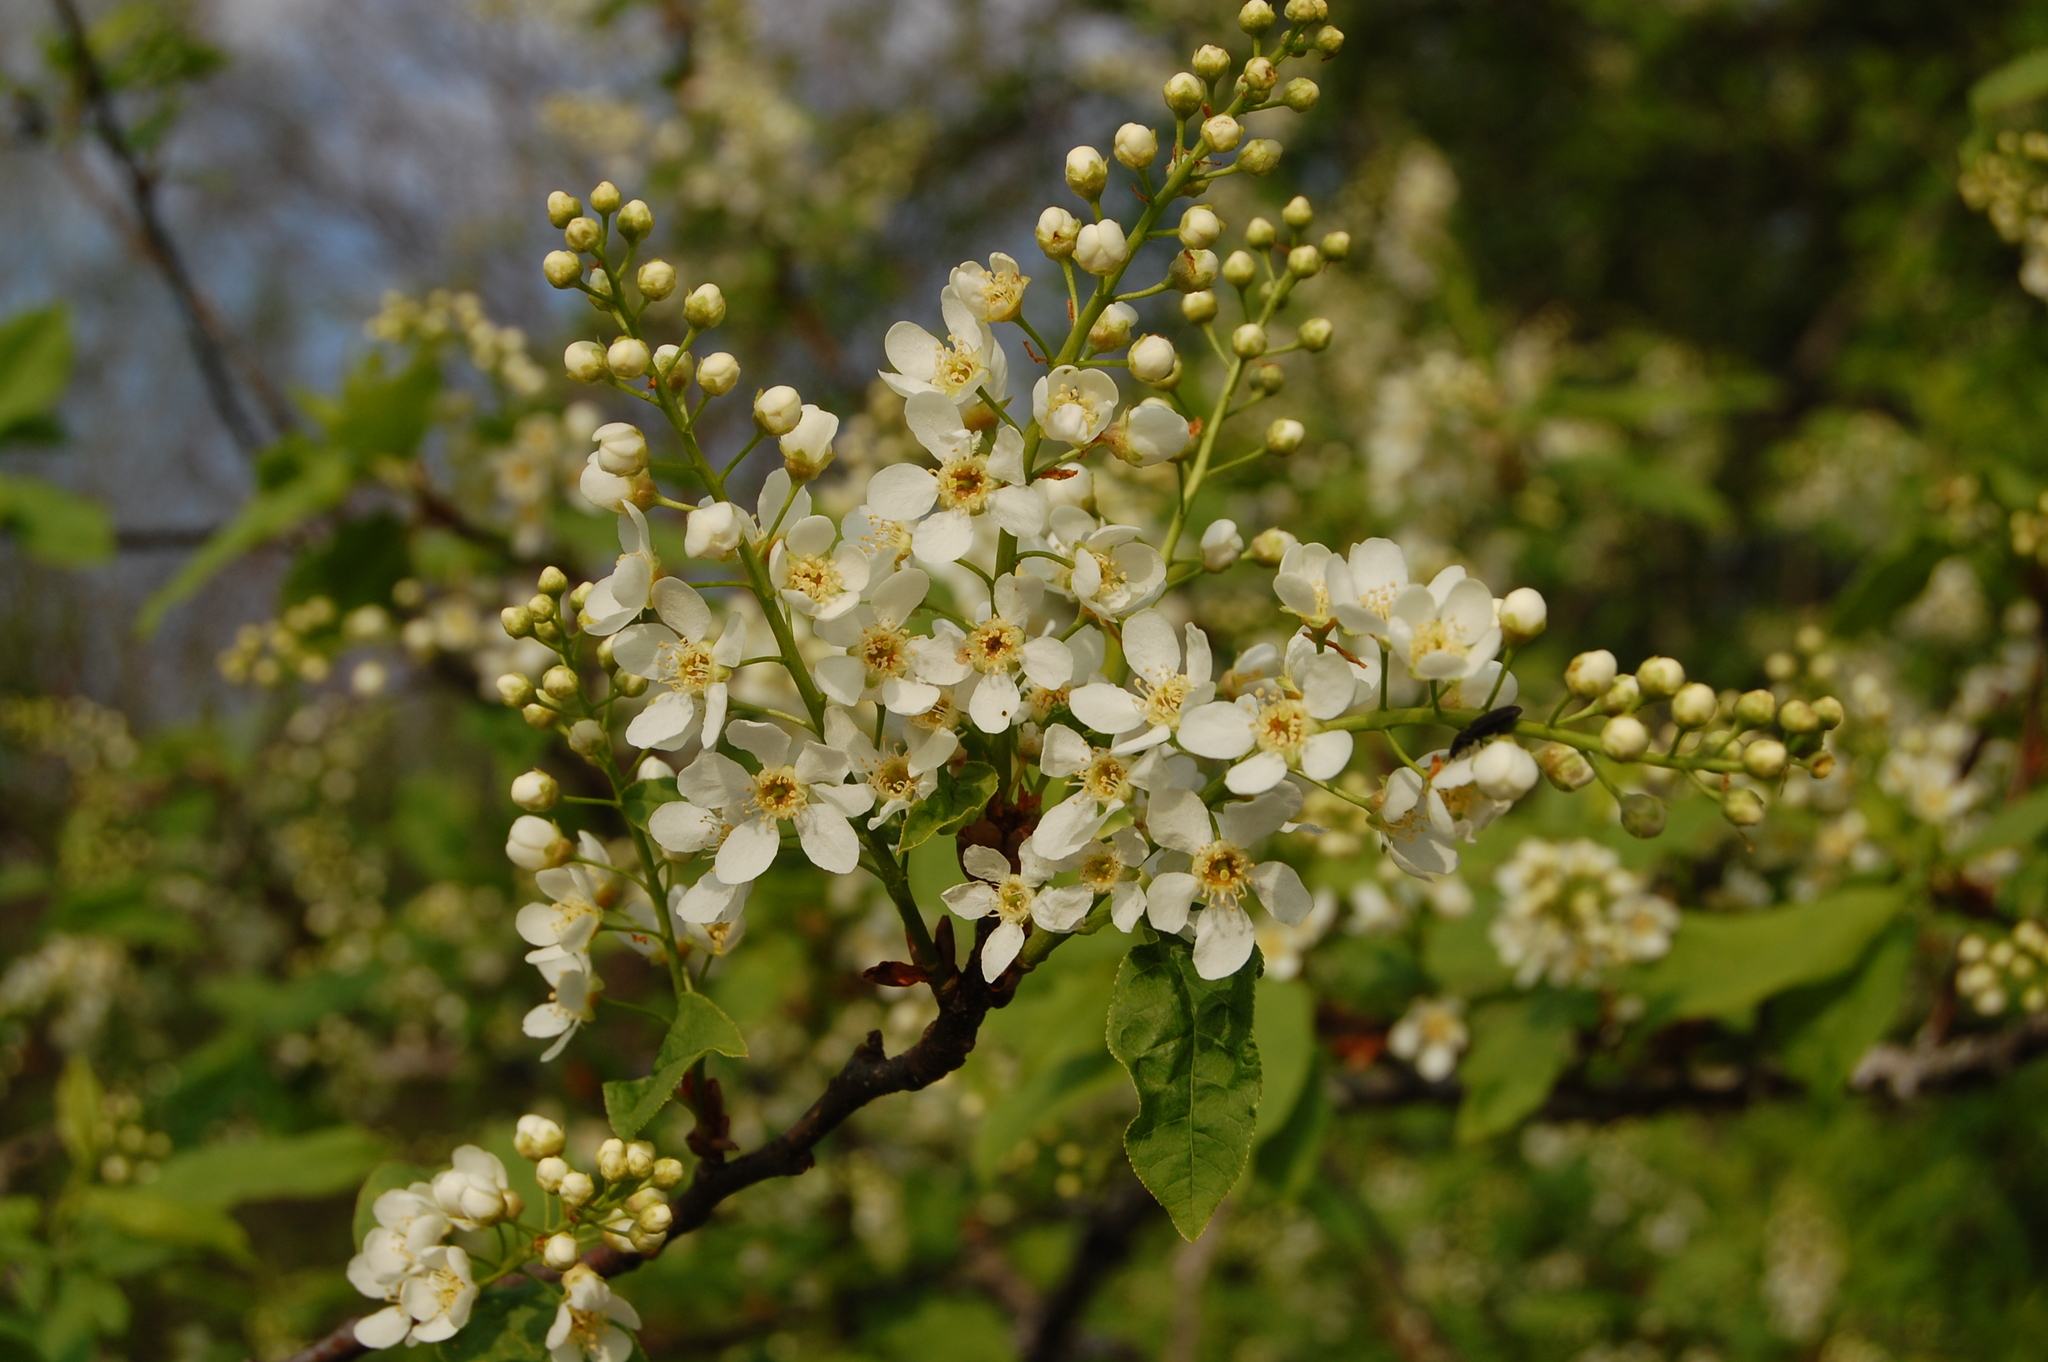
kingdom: Plantae
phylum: Tracheophyta
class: Magnoliopsida
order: Rosales
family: Rosaceae
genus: Prunus
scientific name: Prunus padus
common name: Bird cherry
